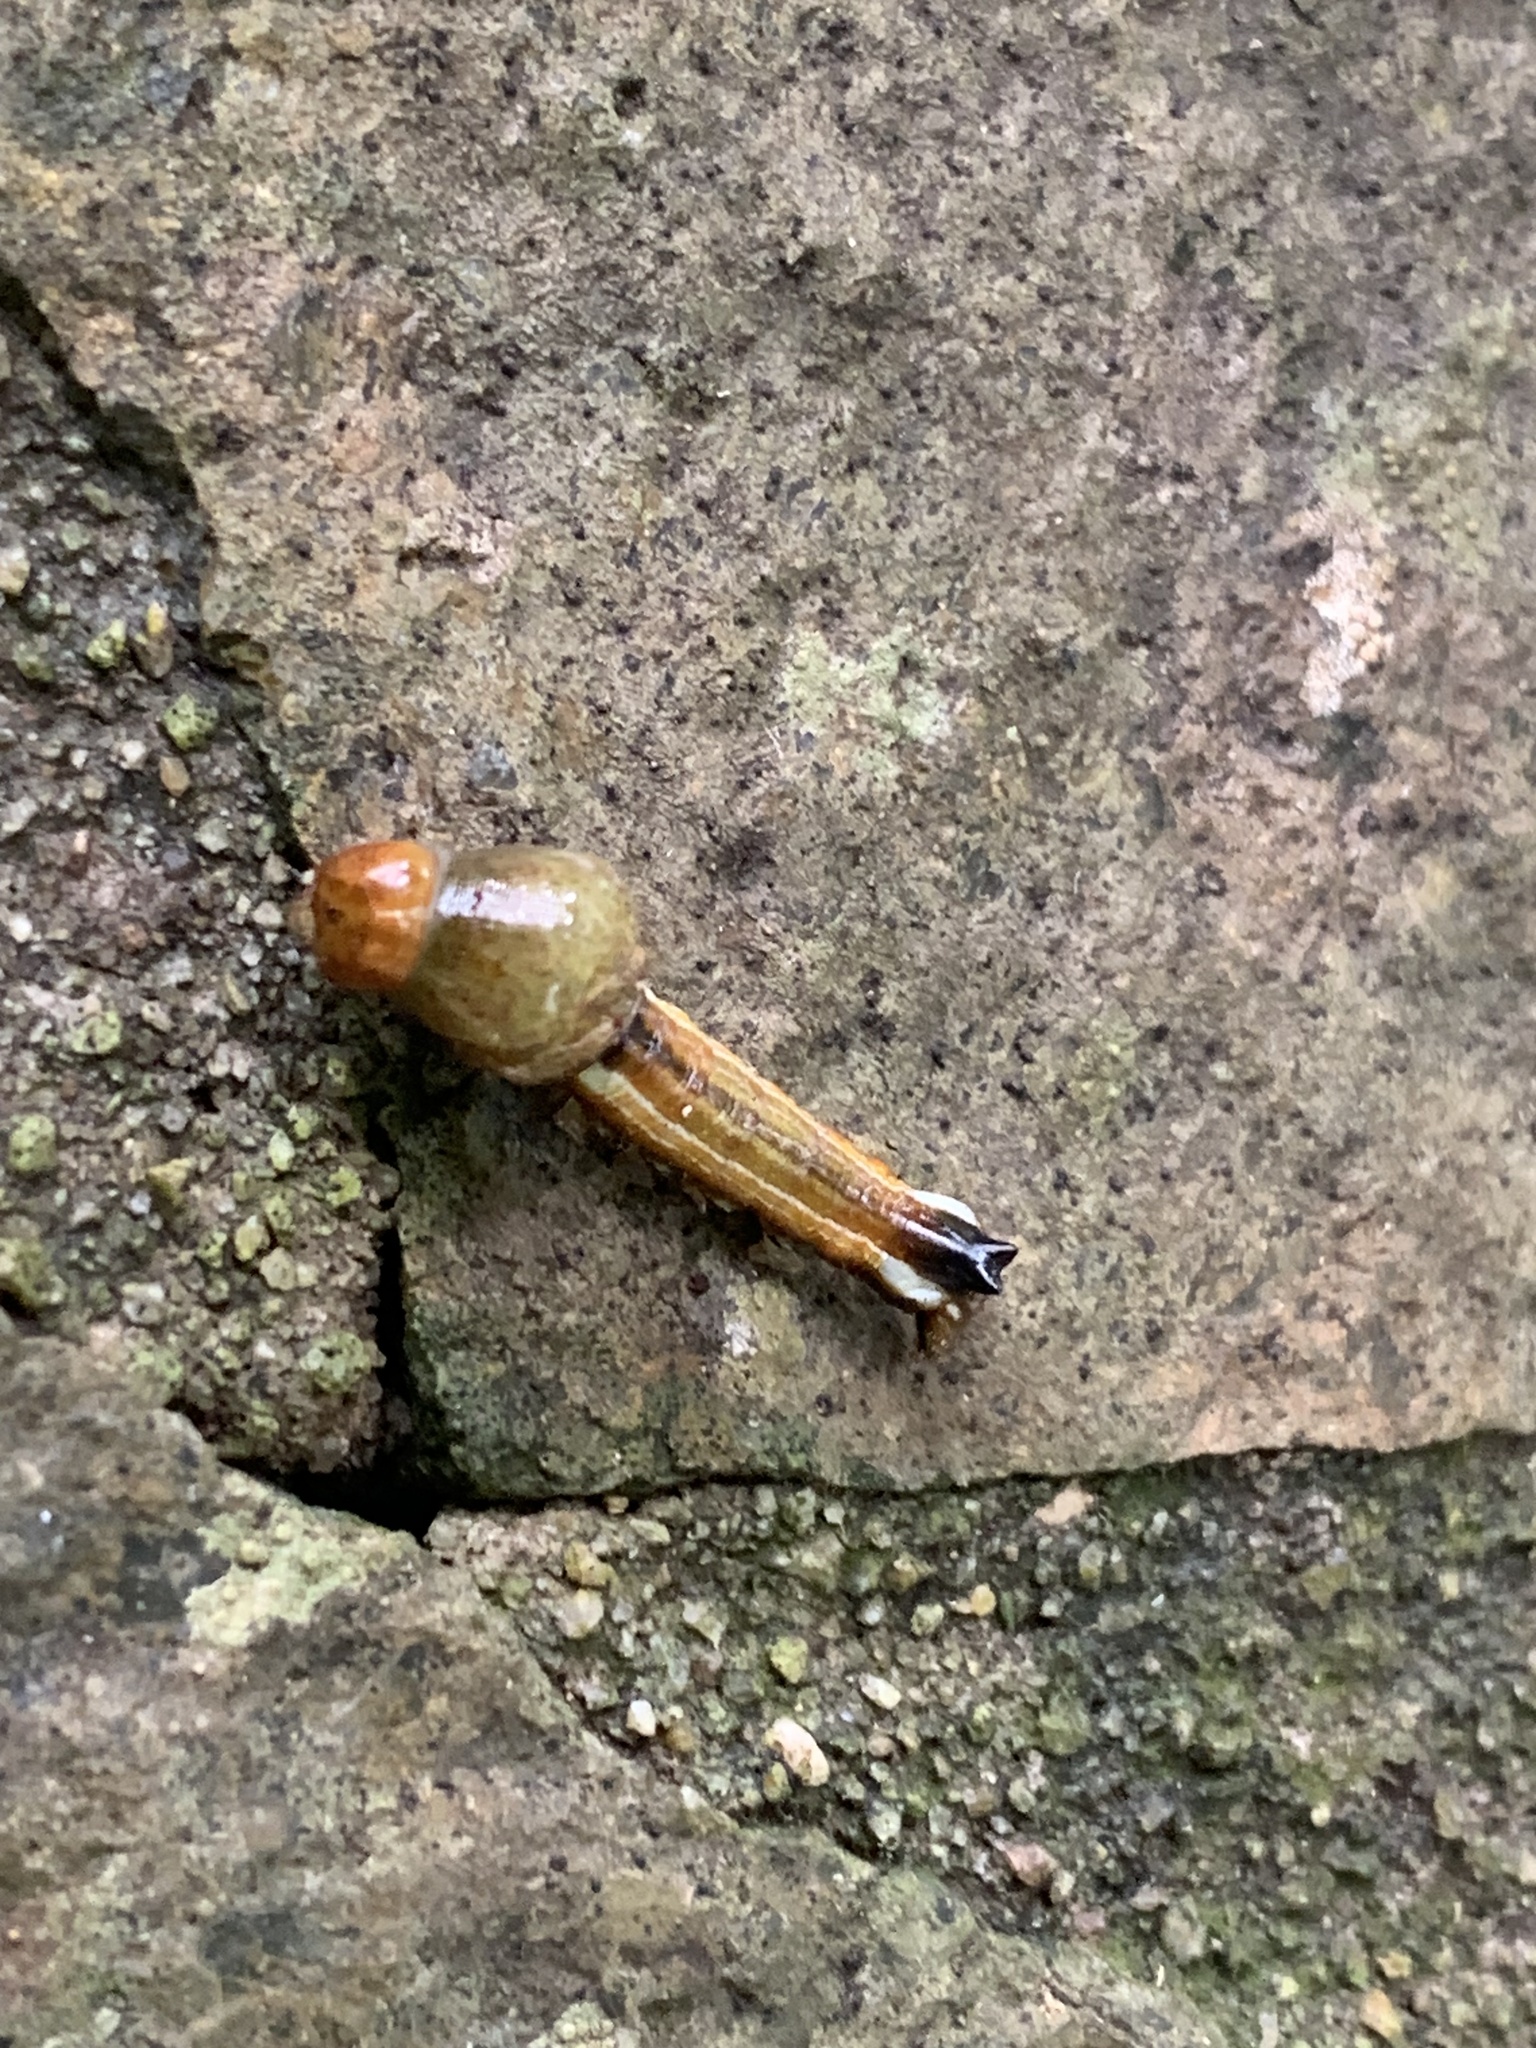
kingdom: Animalia
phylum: Arthropoda
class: Insecta
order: Lepidoptera
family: Lycaenidae
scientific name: Lycaenidae
